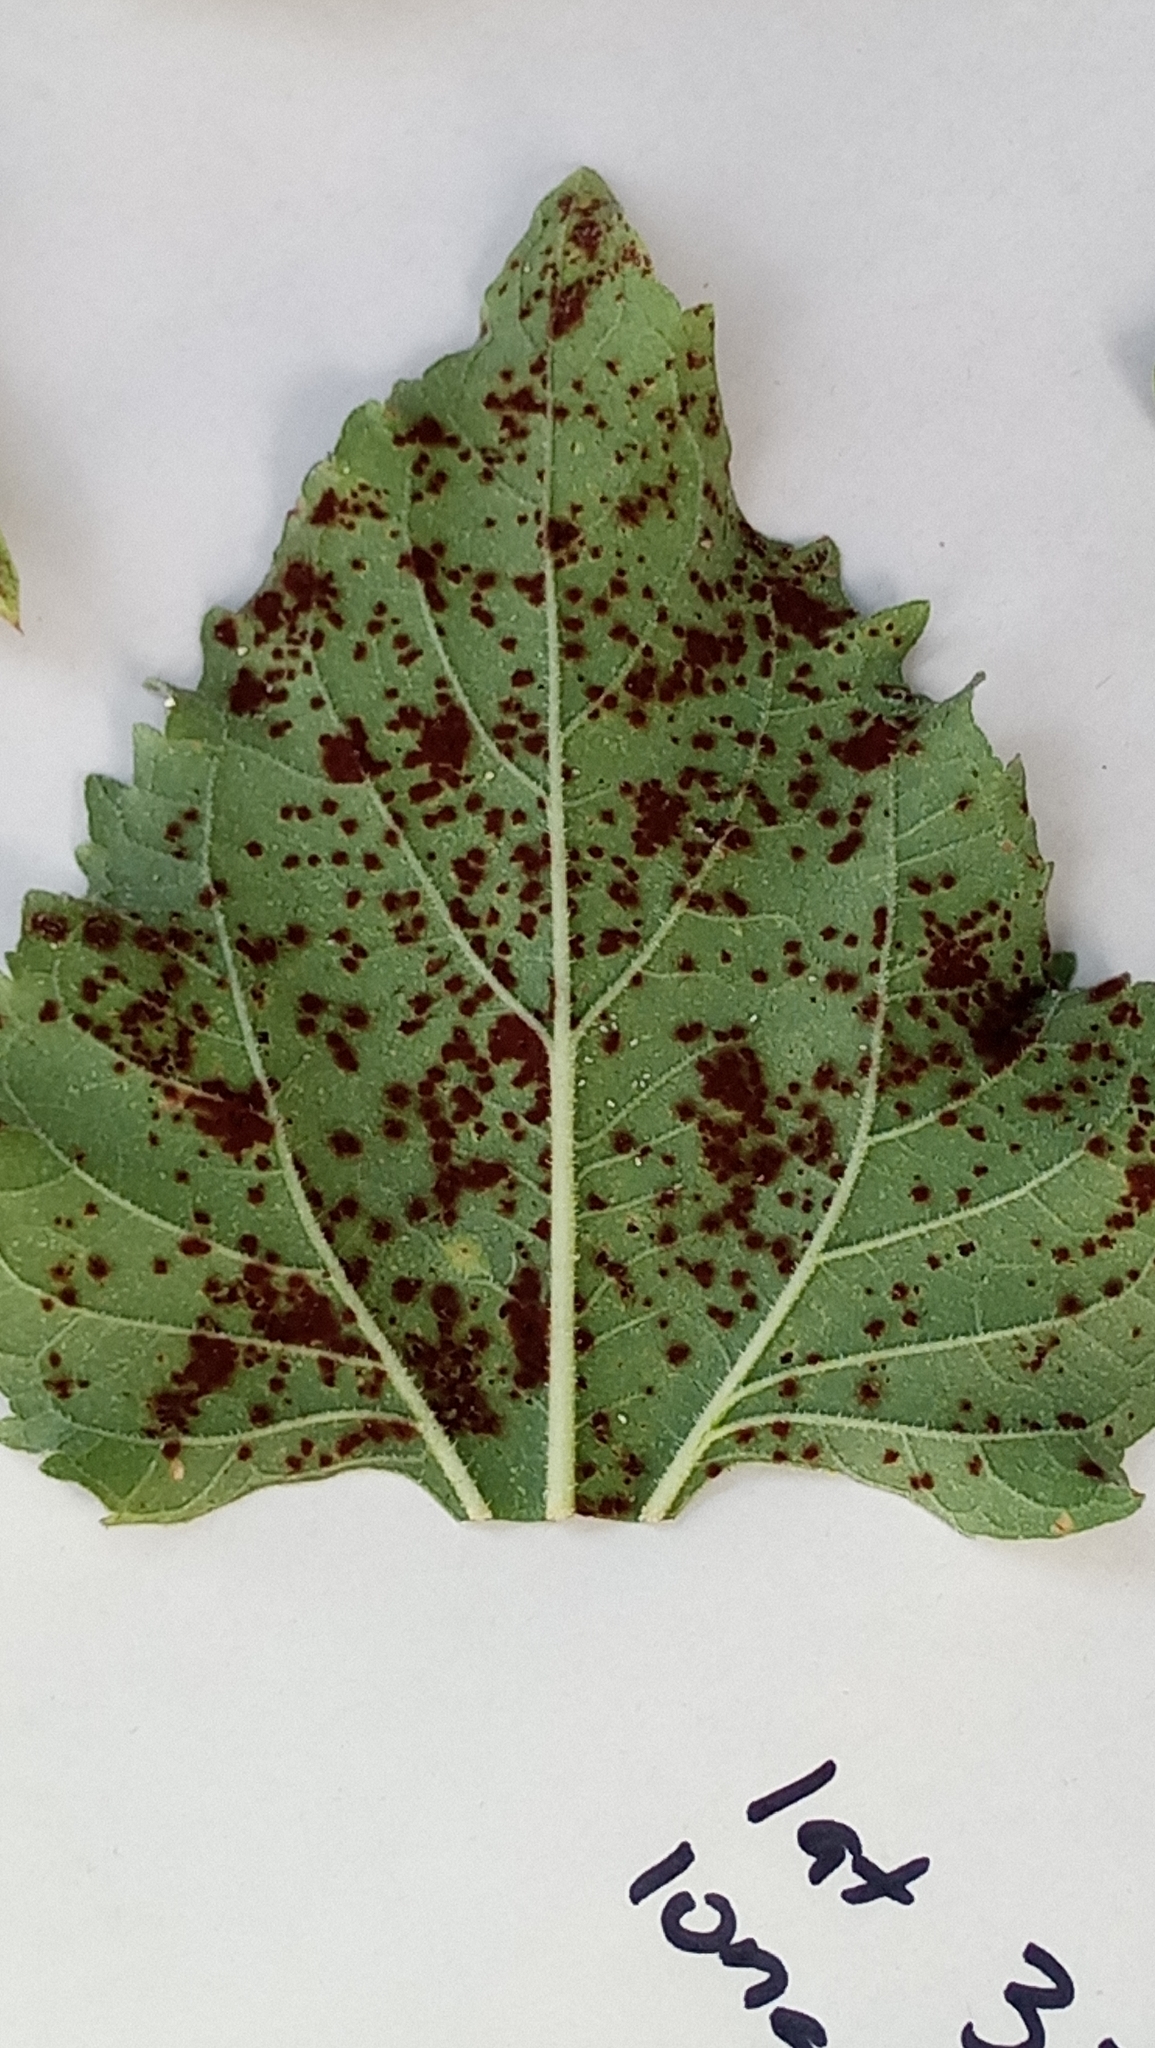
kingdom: Fungi
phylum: Basidiomycota
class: Pucciniomycetes
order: Pucciniales
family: Pucciniaceae
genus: Puccinia
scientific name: Puccinia helianthi-mollis
